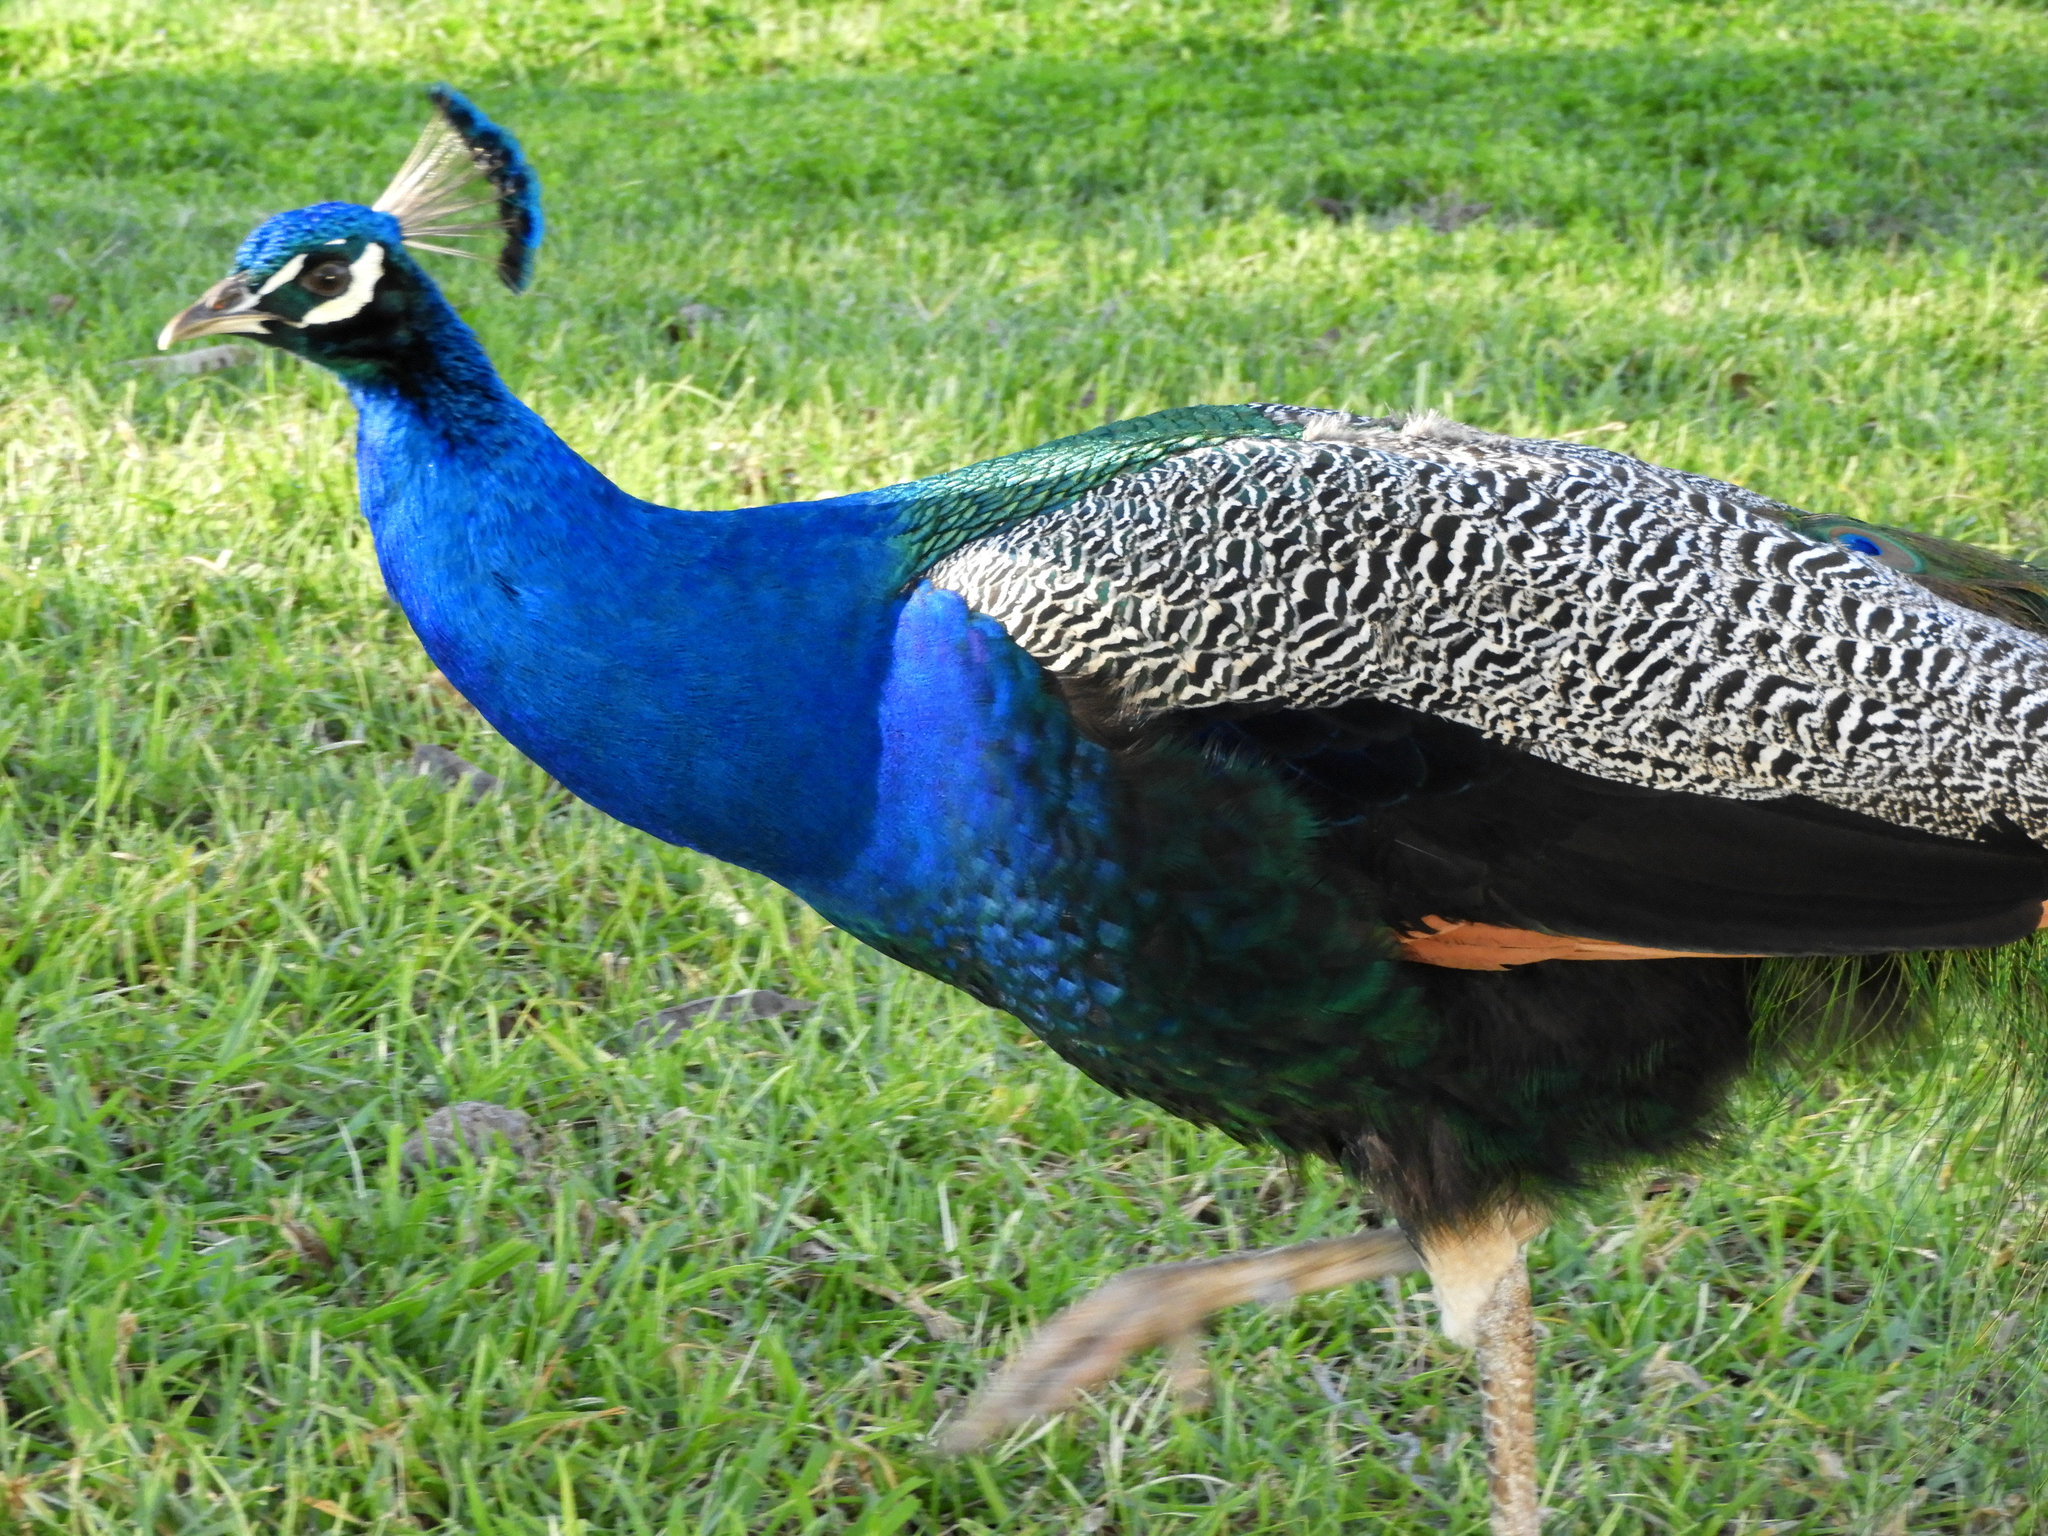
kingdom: Animalia
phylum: Chordata
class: Aves
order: Galliformes
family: Phasianidae
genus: Pavo
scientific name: Pavo cristatus
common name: Indian peafowl
